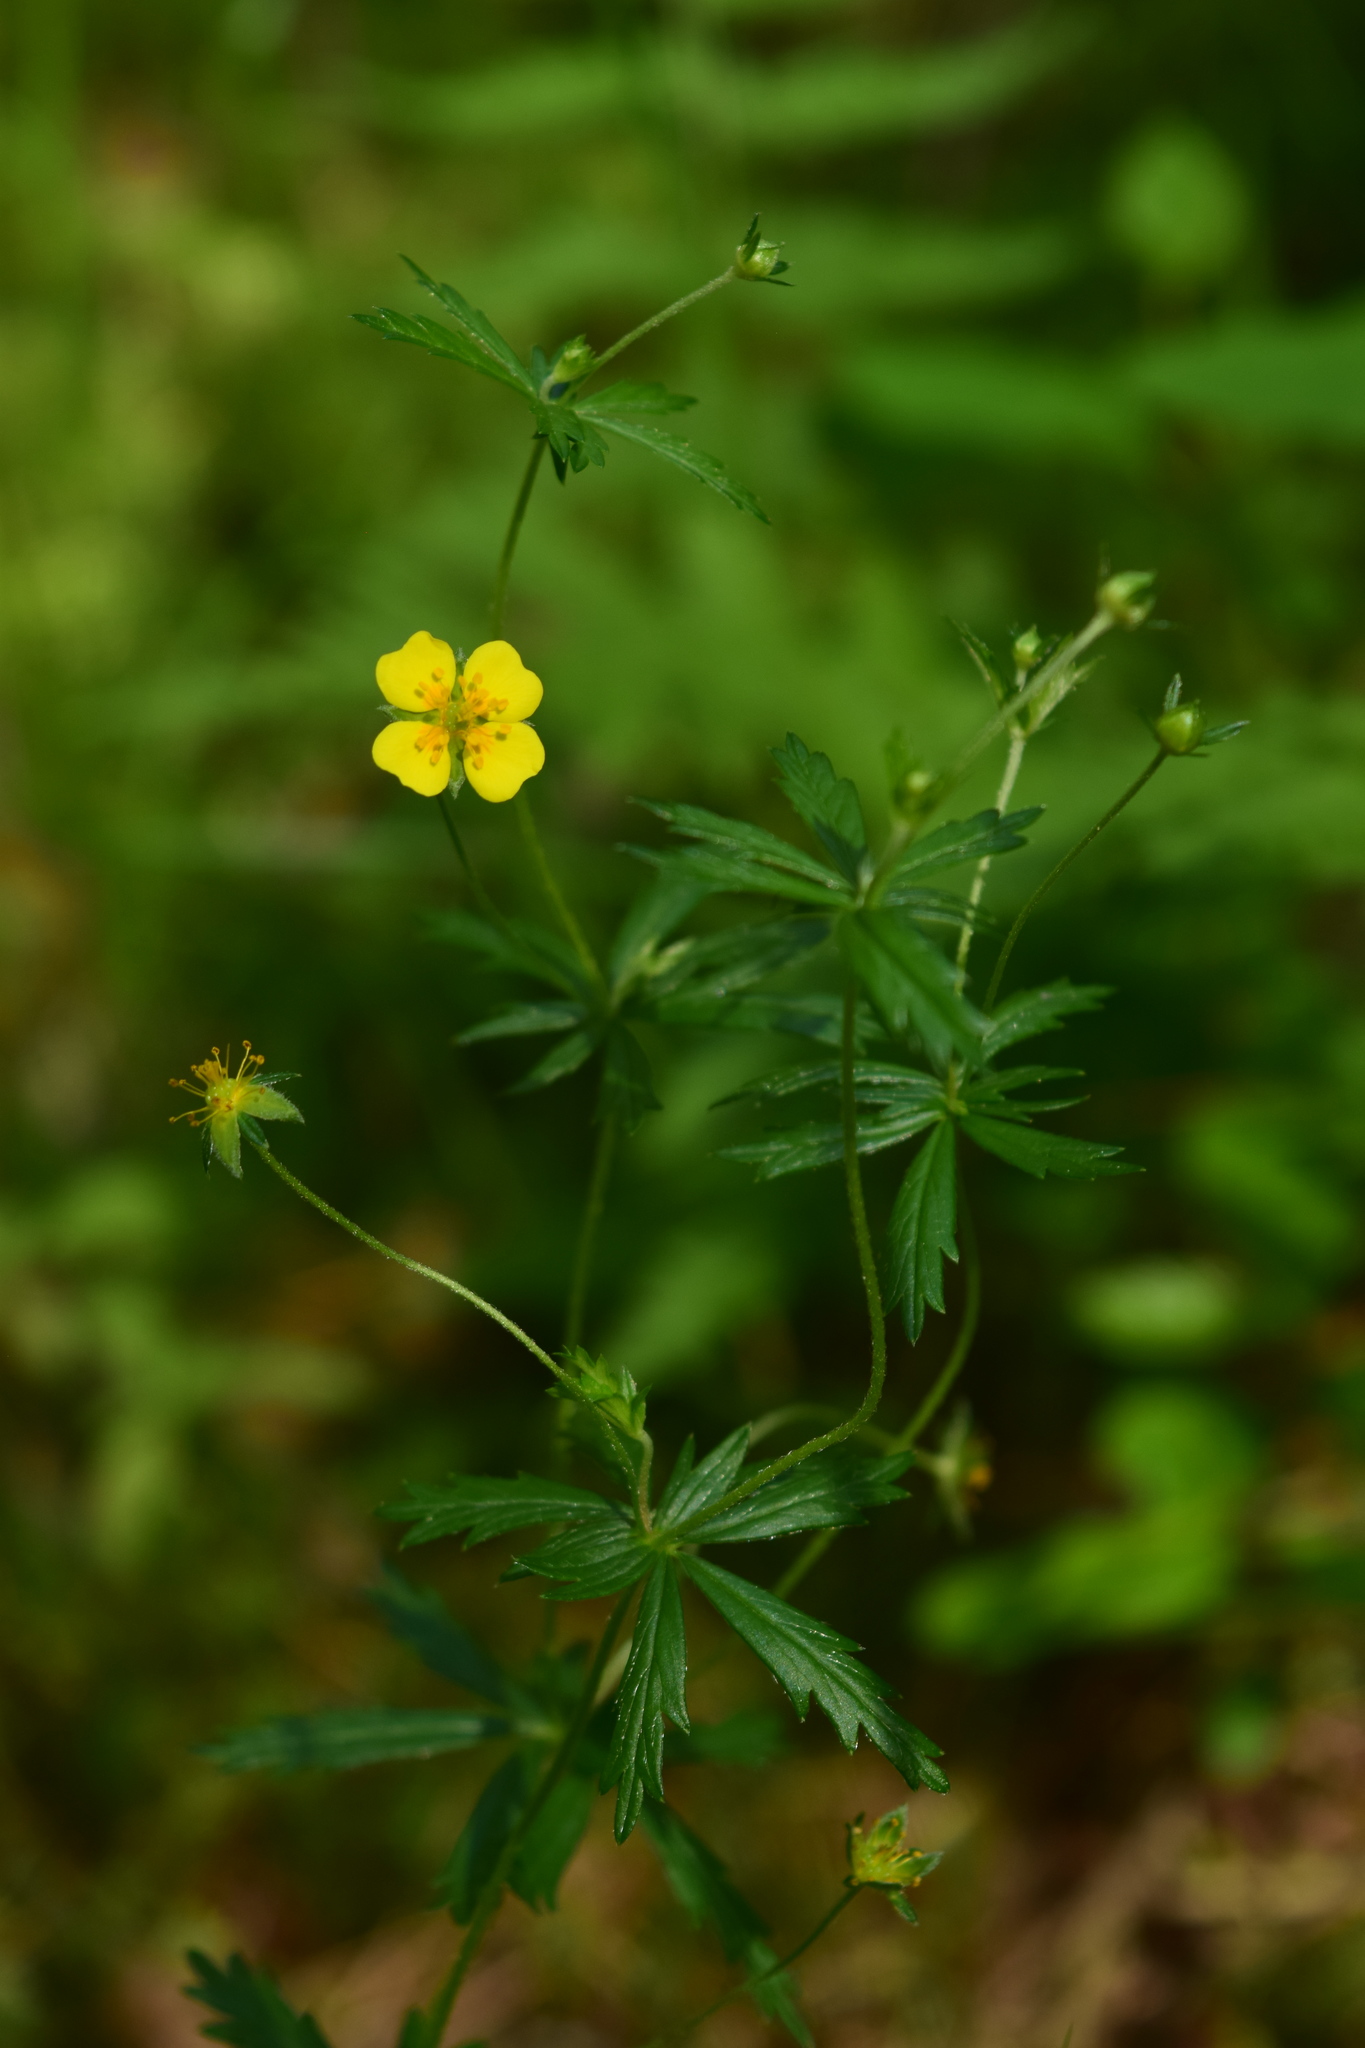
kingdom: Plantae
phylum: Tracheophyta
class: Magnoliopsida
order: Rosales
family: Rosaceae
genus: Potentilla
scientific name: Potentilla erecta
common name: Tormentil
